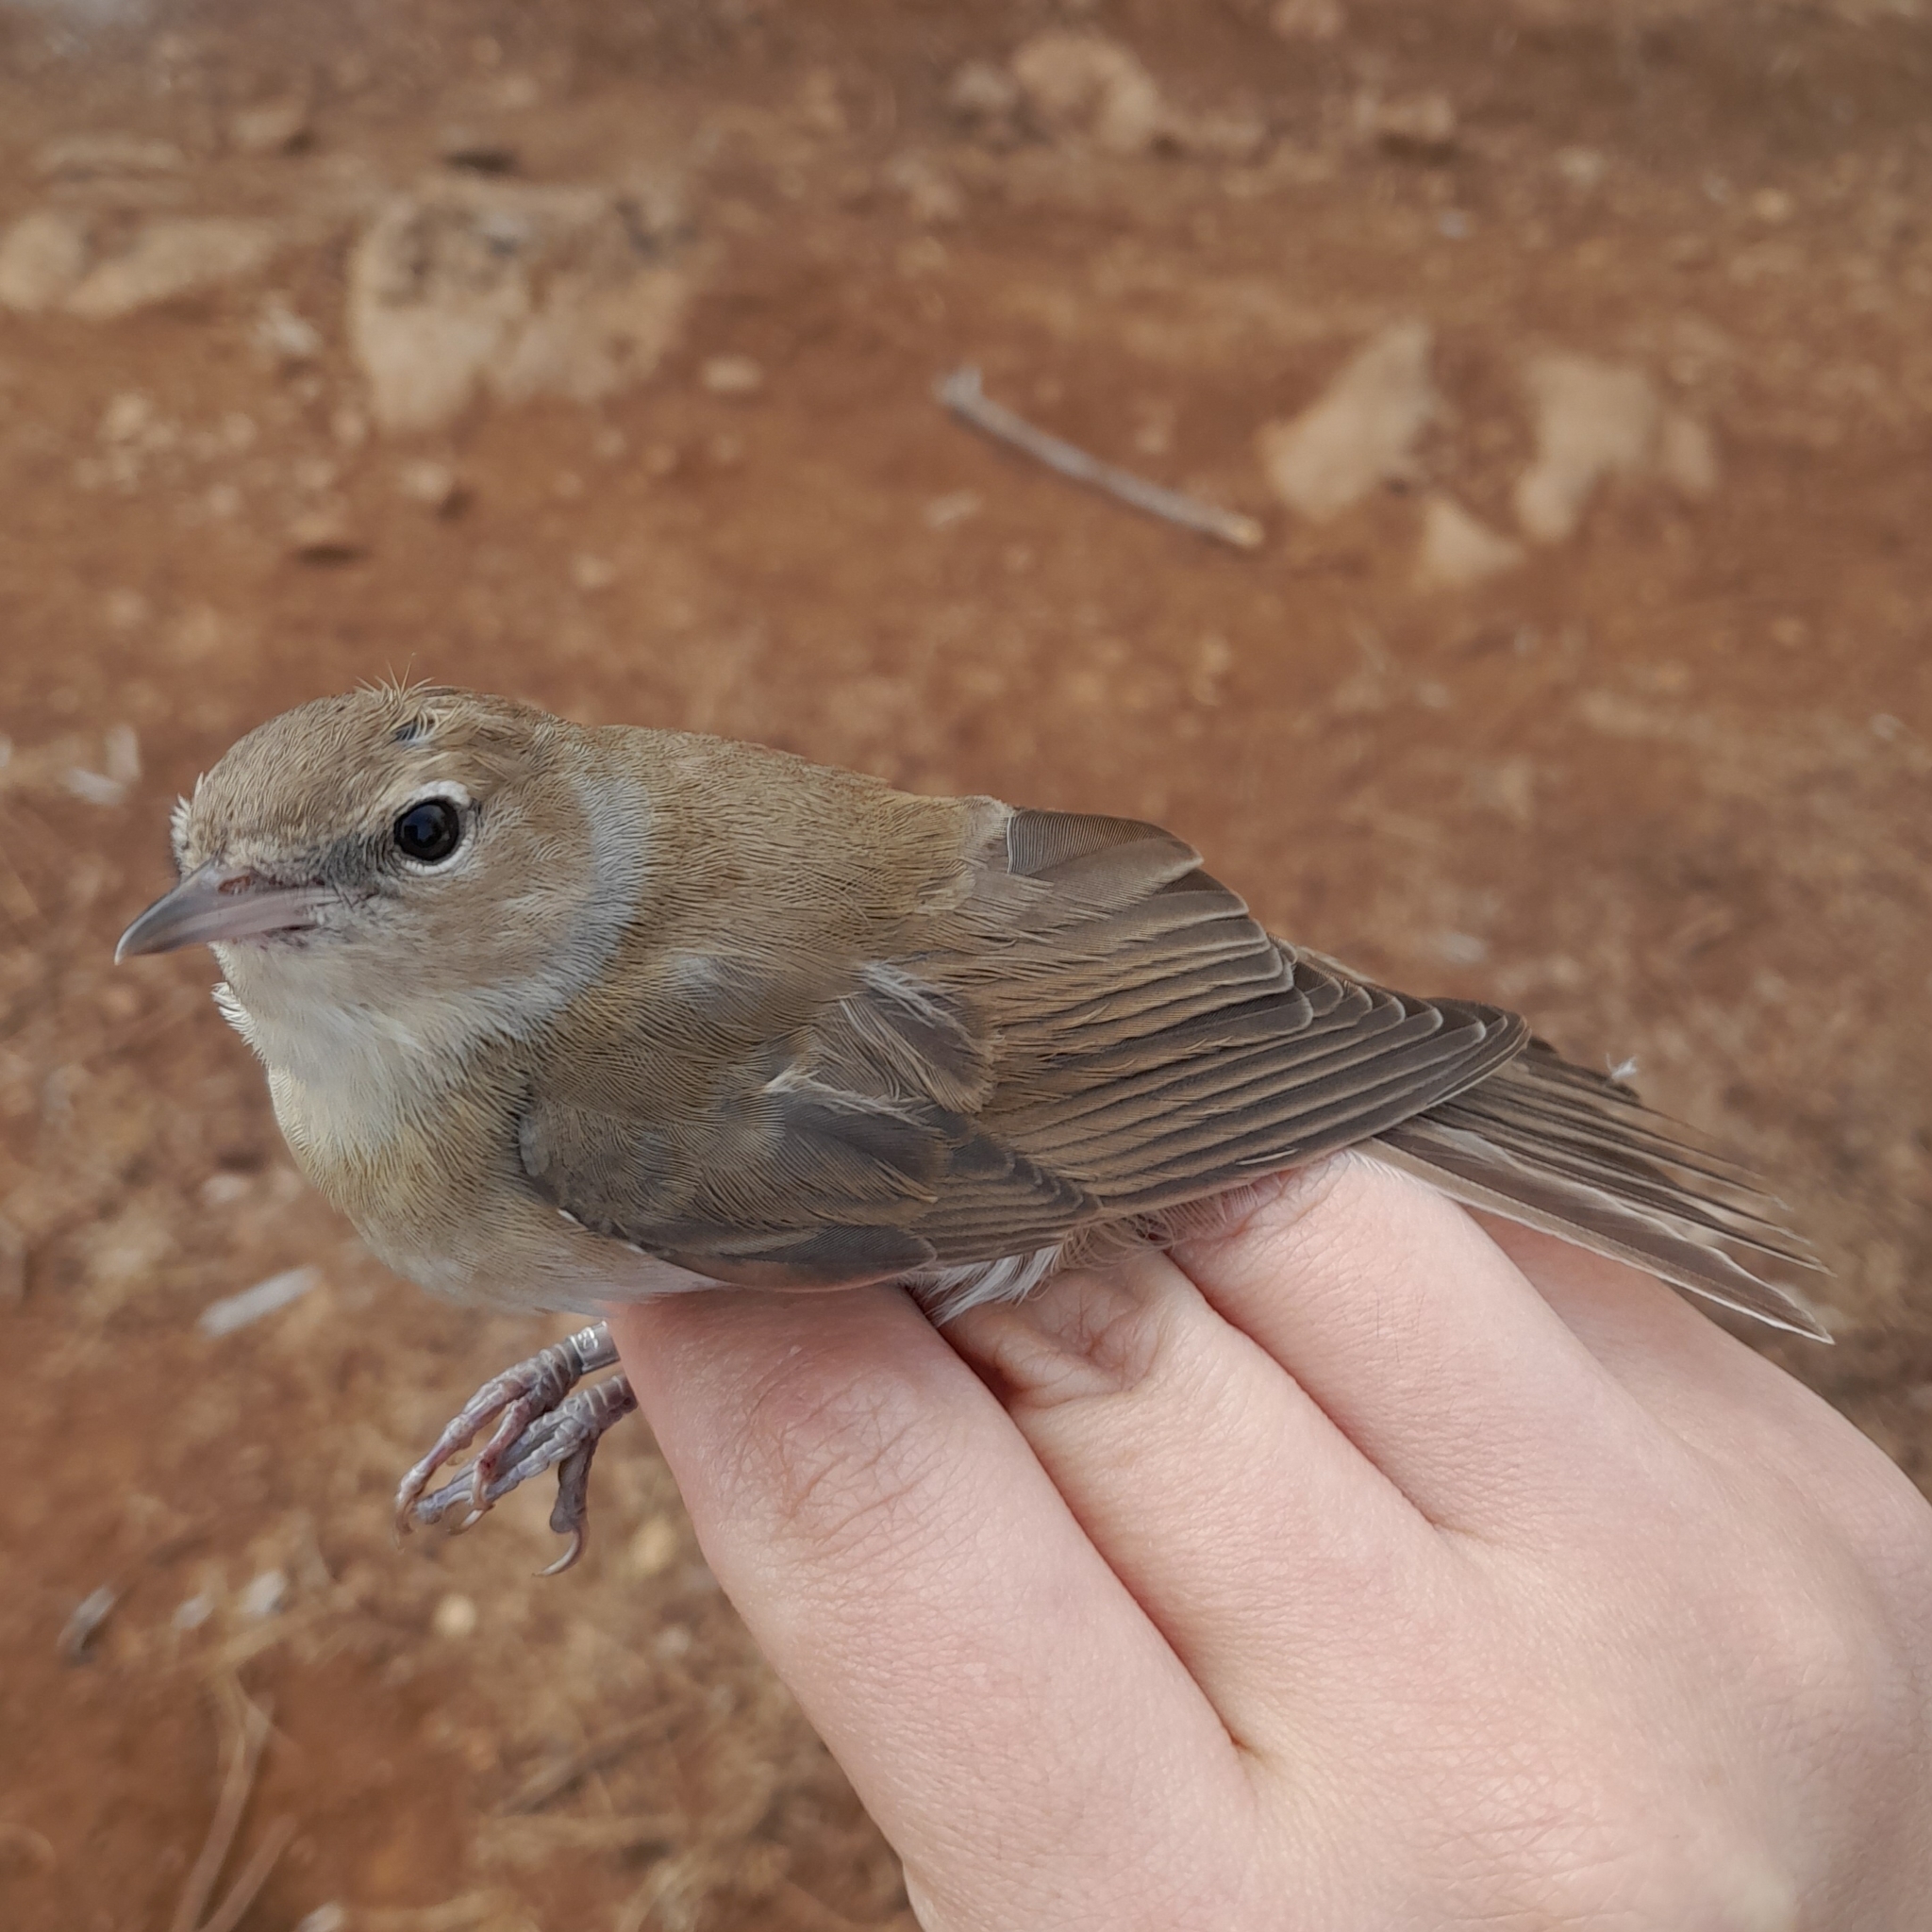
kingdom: Animalia
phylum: Chordata
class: Aves
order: Passeriformes
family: Sylviidae
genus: Sylvia
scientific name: Sylvia borin
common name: Garden warbler
